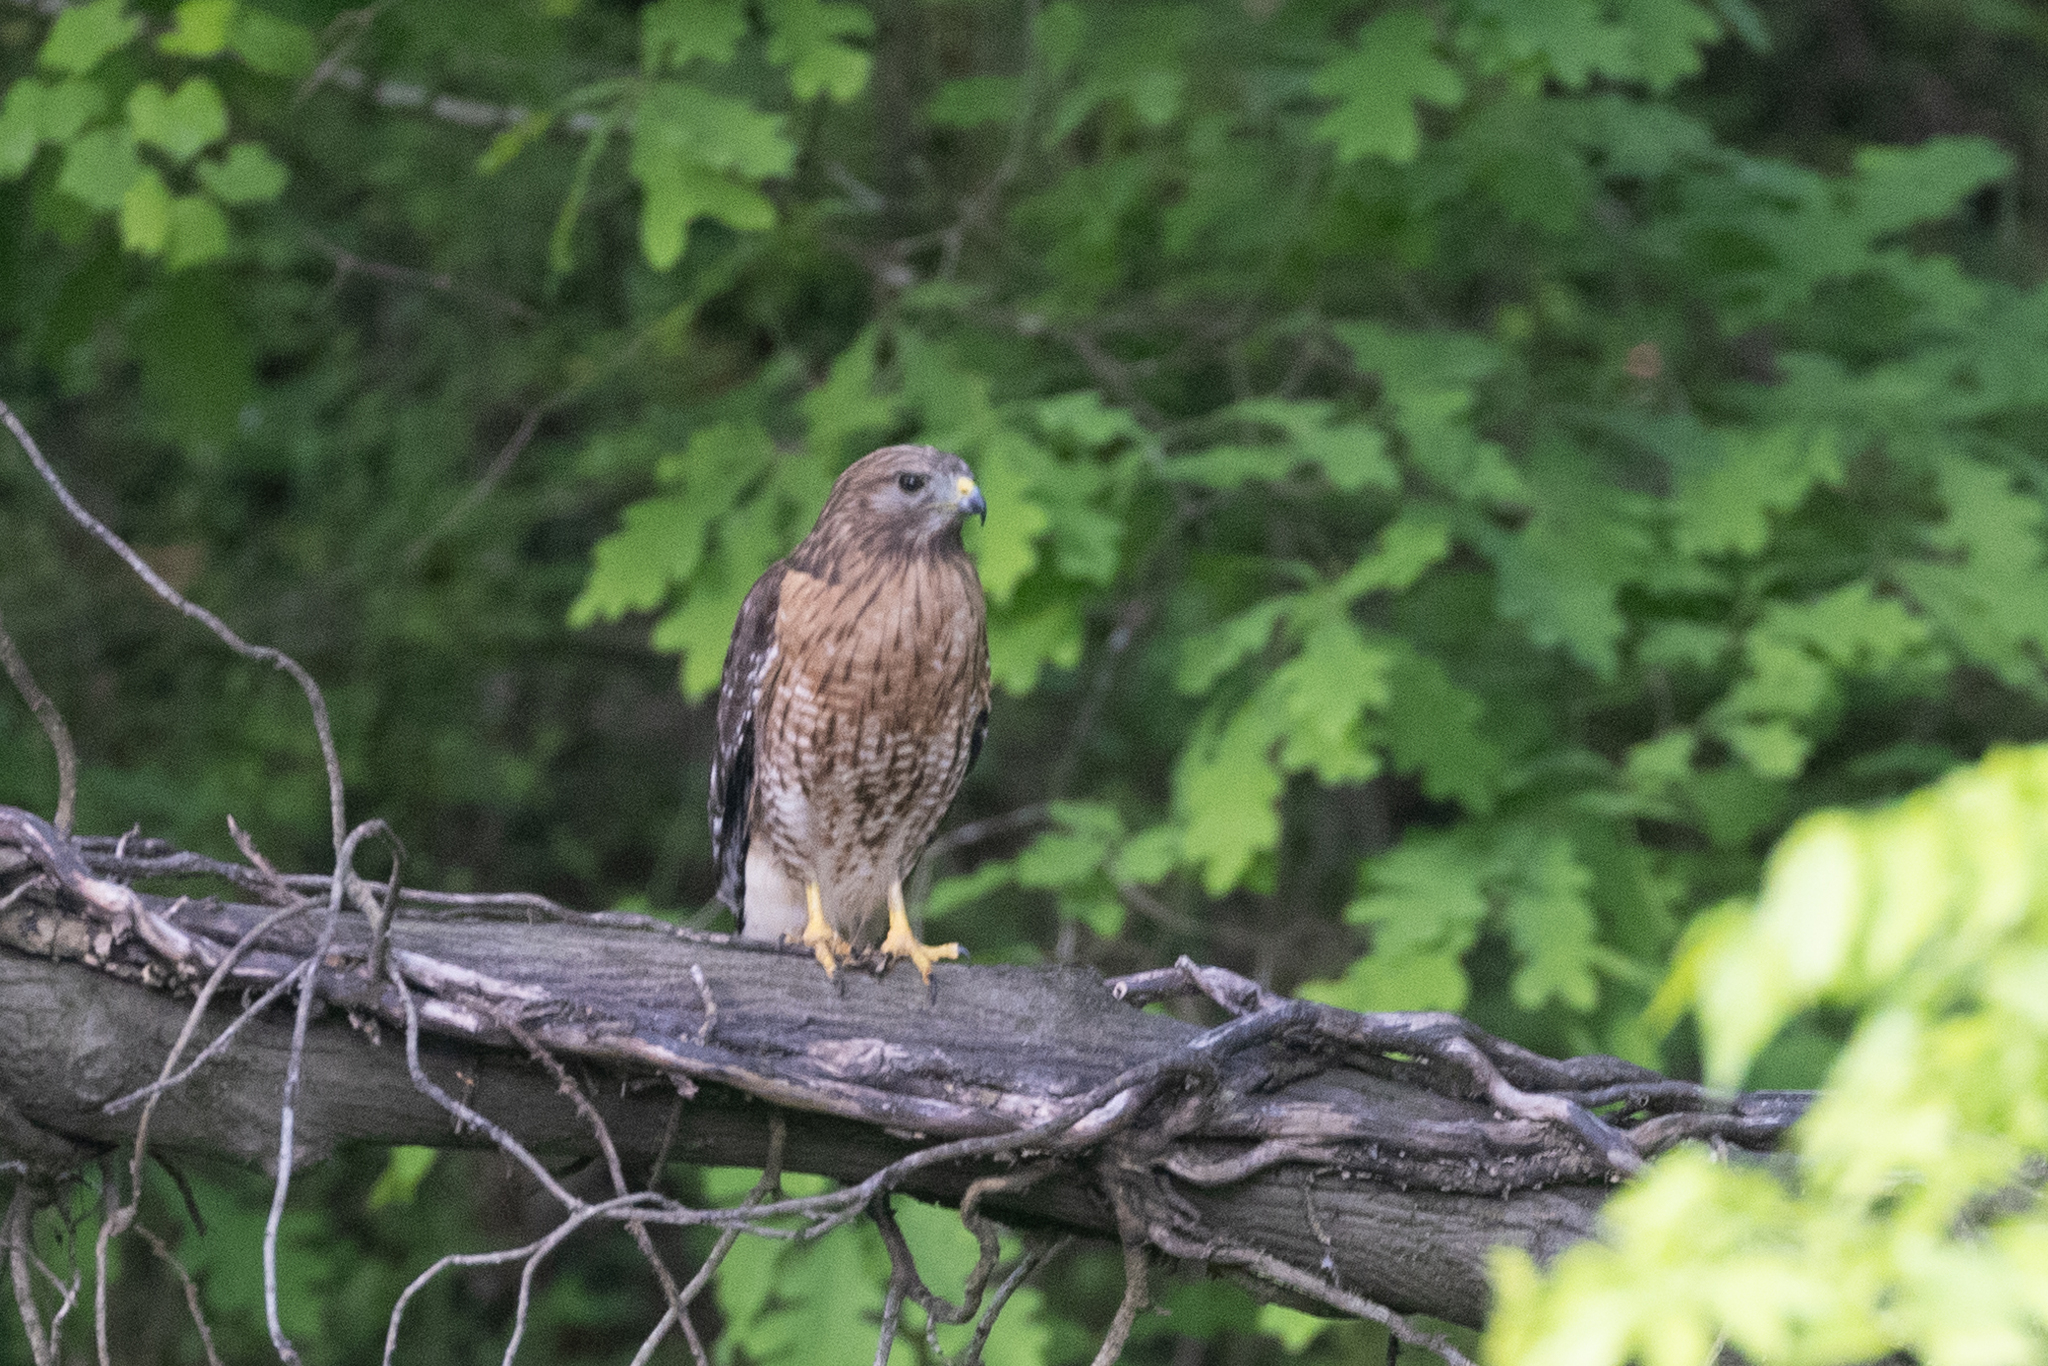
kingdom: Animalia
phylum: Chordata
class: Aves
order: Accipitriformes
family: Accipitridae
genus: Buteo
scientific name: Buteo lineatus
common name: Red-shouldered hawk
